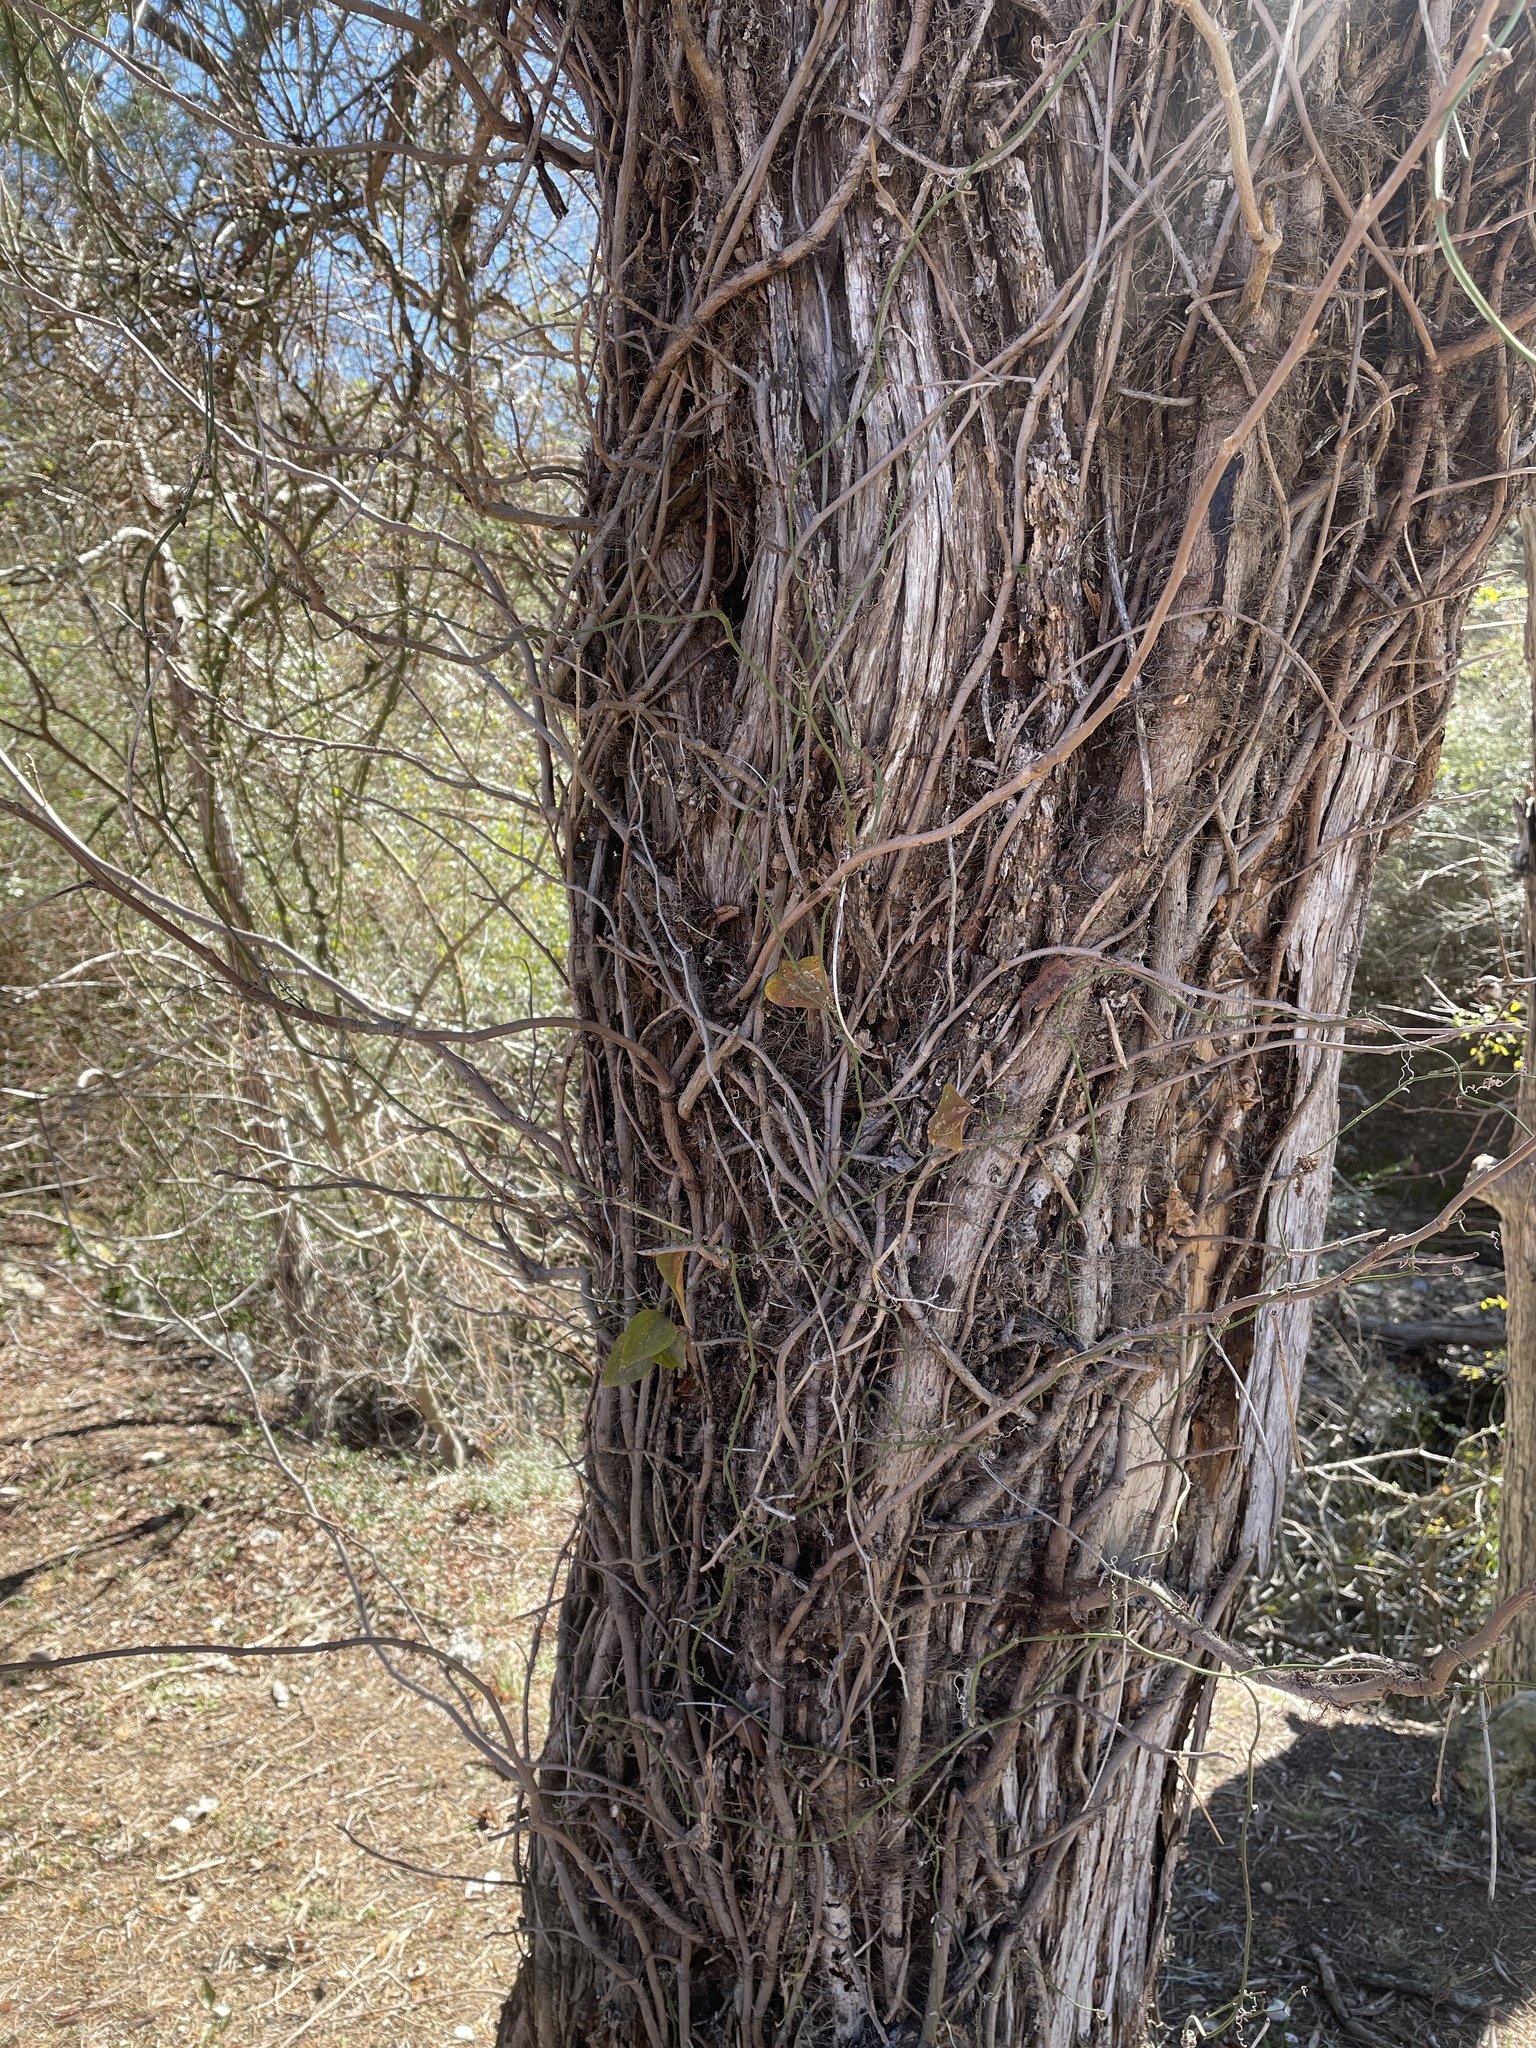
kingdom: Plantae
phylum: Tracheophyta
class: Magnoliopsida
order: Sapindales
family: Anacardiaceae
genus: Toxicodendron
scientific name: Toxicodendron radicans
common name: Poison ivy
